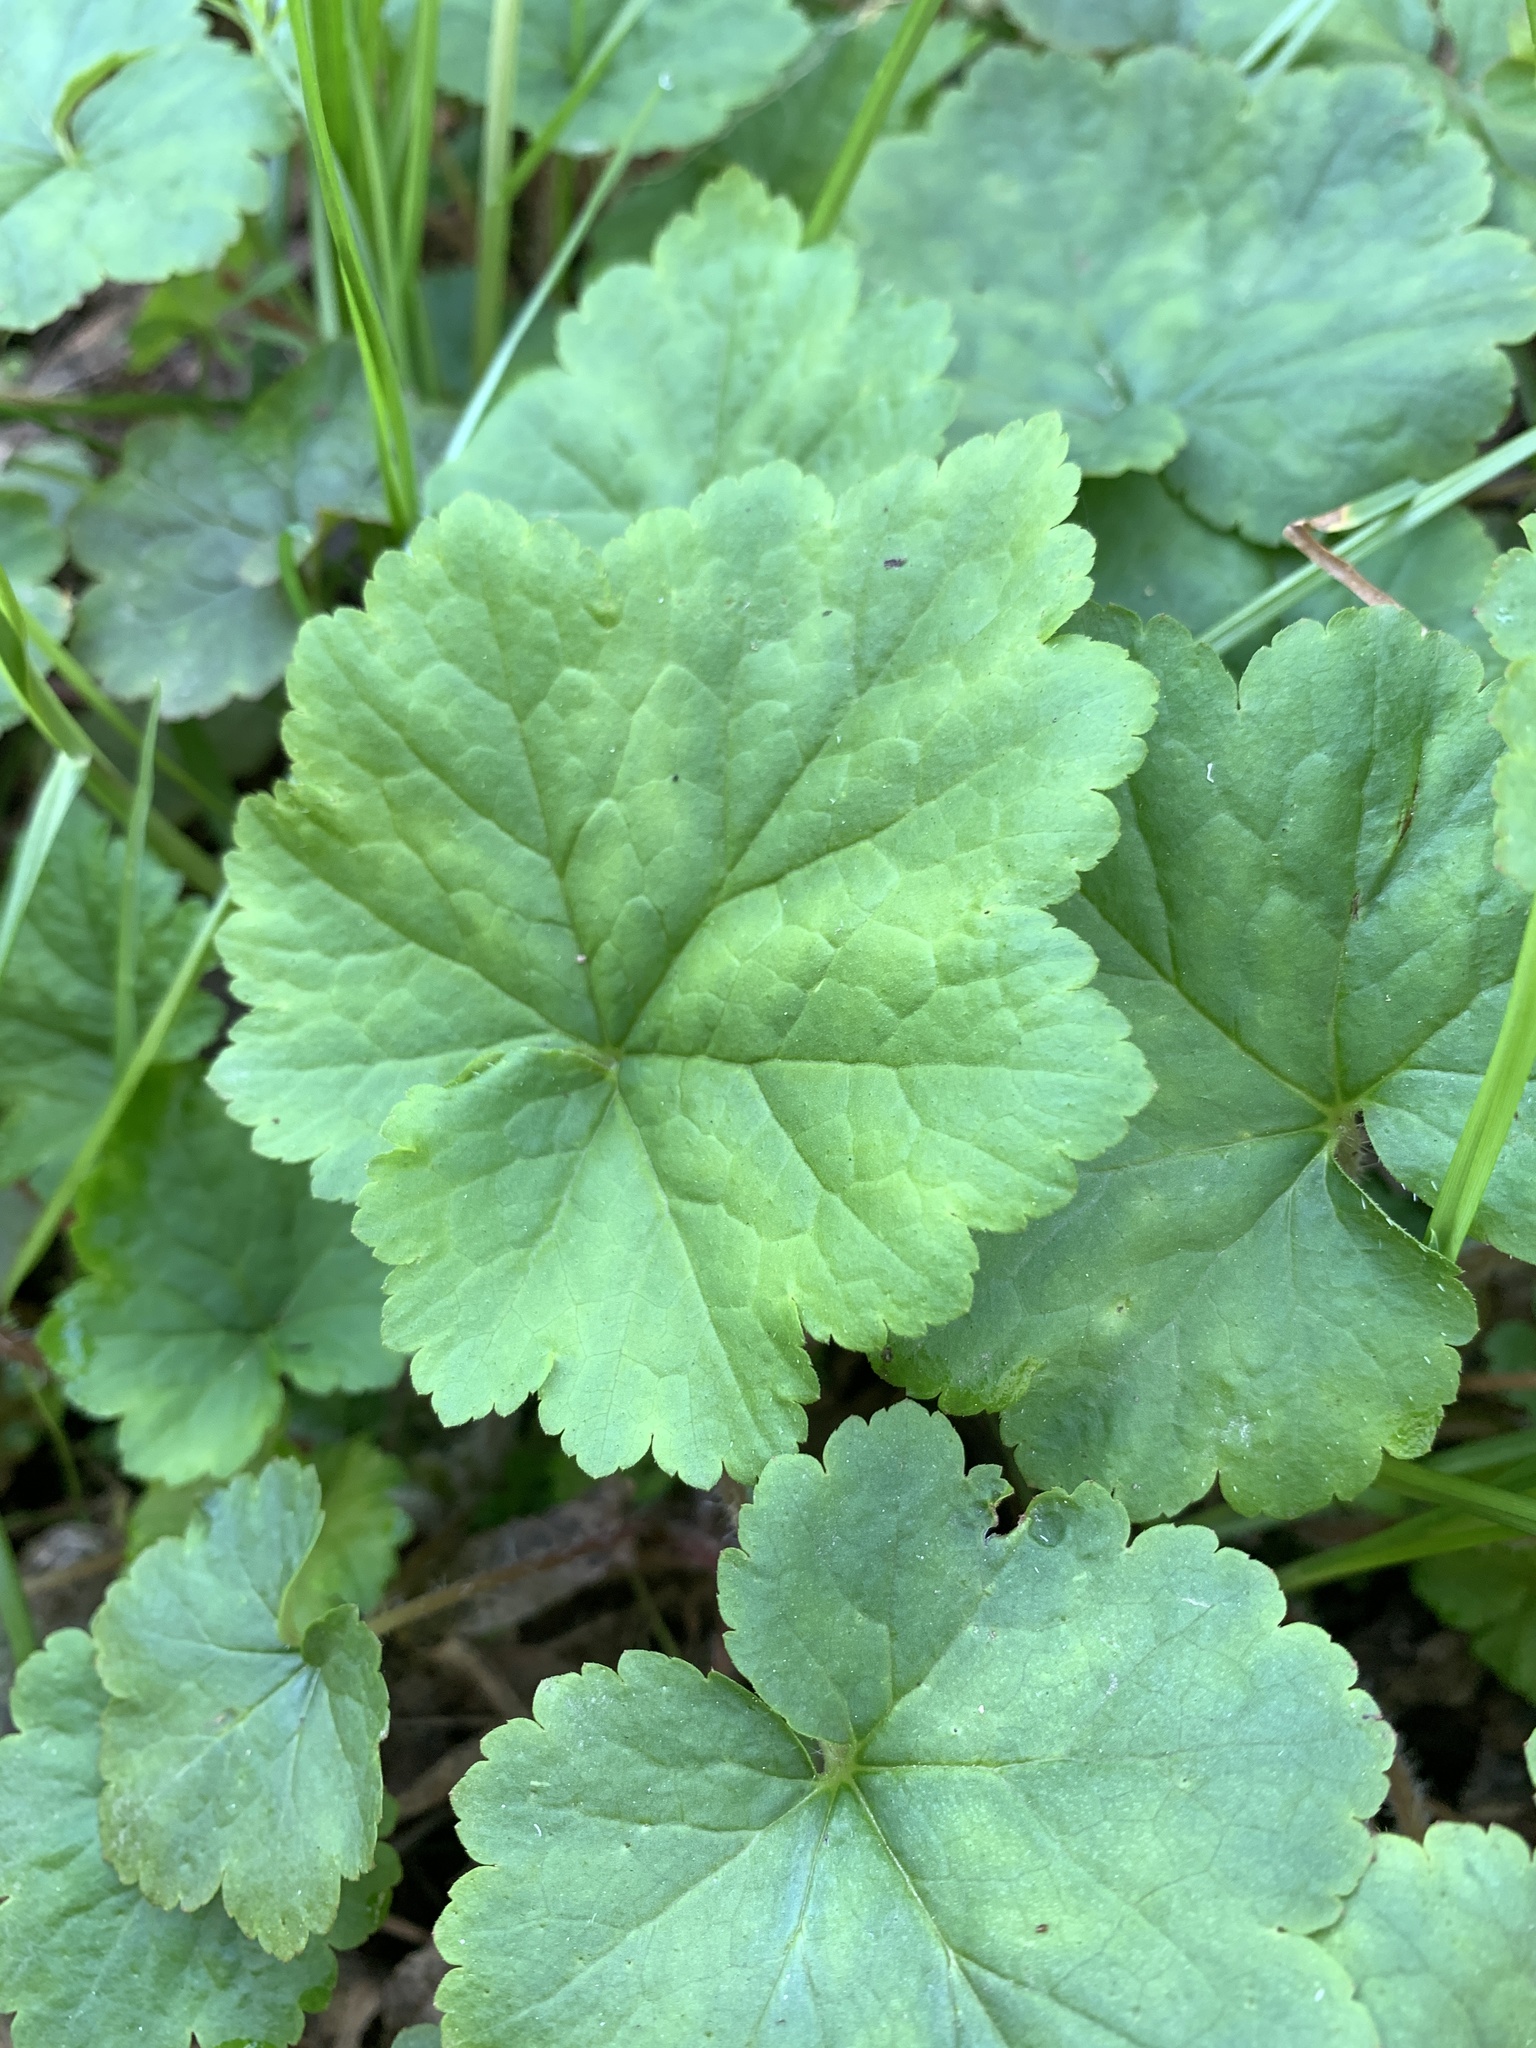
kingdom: Plantae
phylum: Tracheophyta
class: Magnoliopsida
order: Saxifragales
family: Saxifragaceae
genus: Tellima
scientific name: Tellima grandiflora
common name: Fringecups
